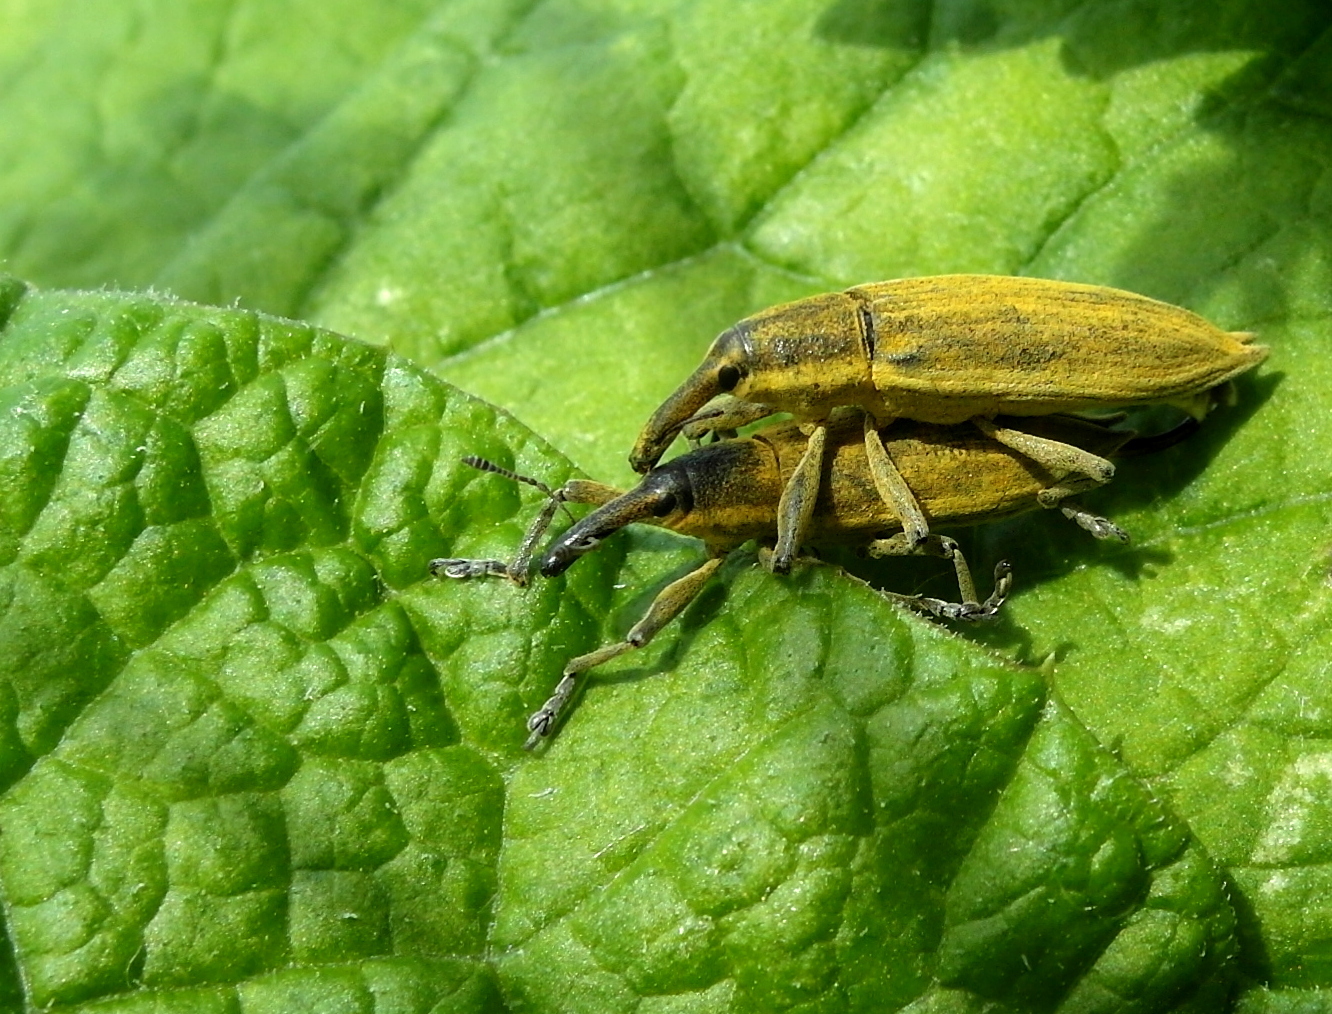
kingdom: Animalia
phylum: Arthropoda
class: Insecta
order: Coleoptera
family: Curculionidae
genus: Lixus
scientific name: Lixus iridis
